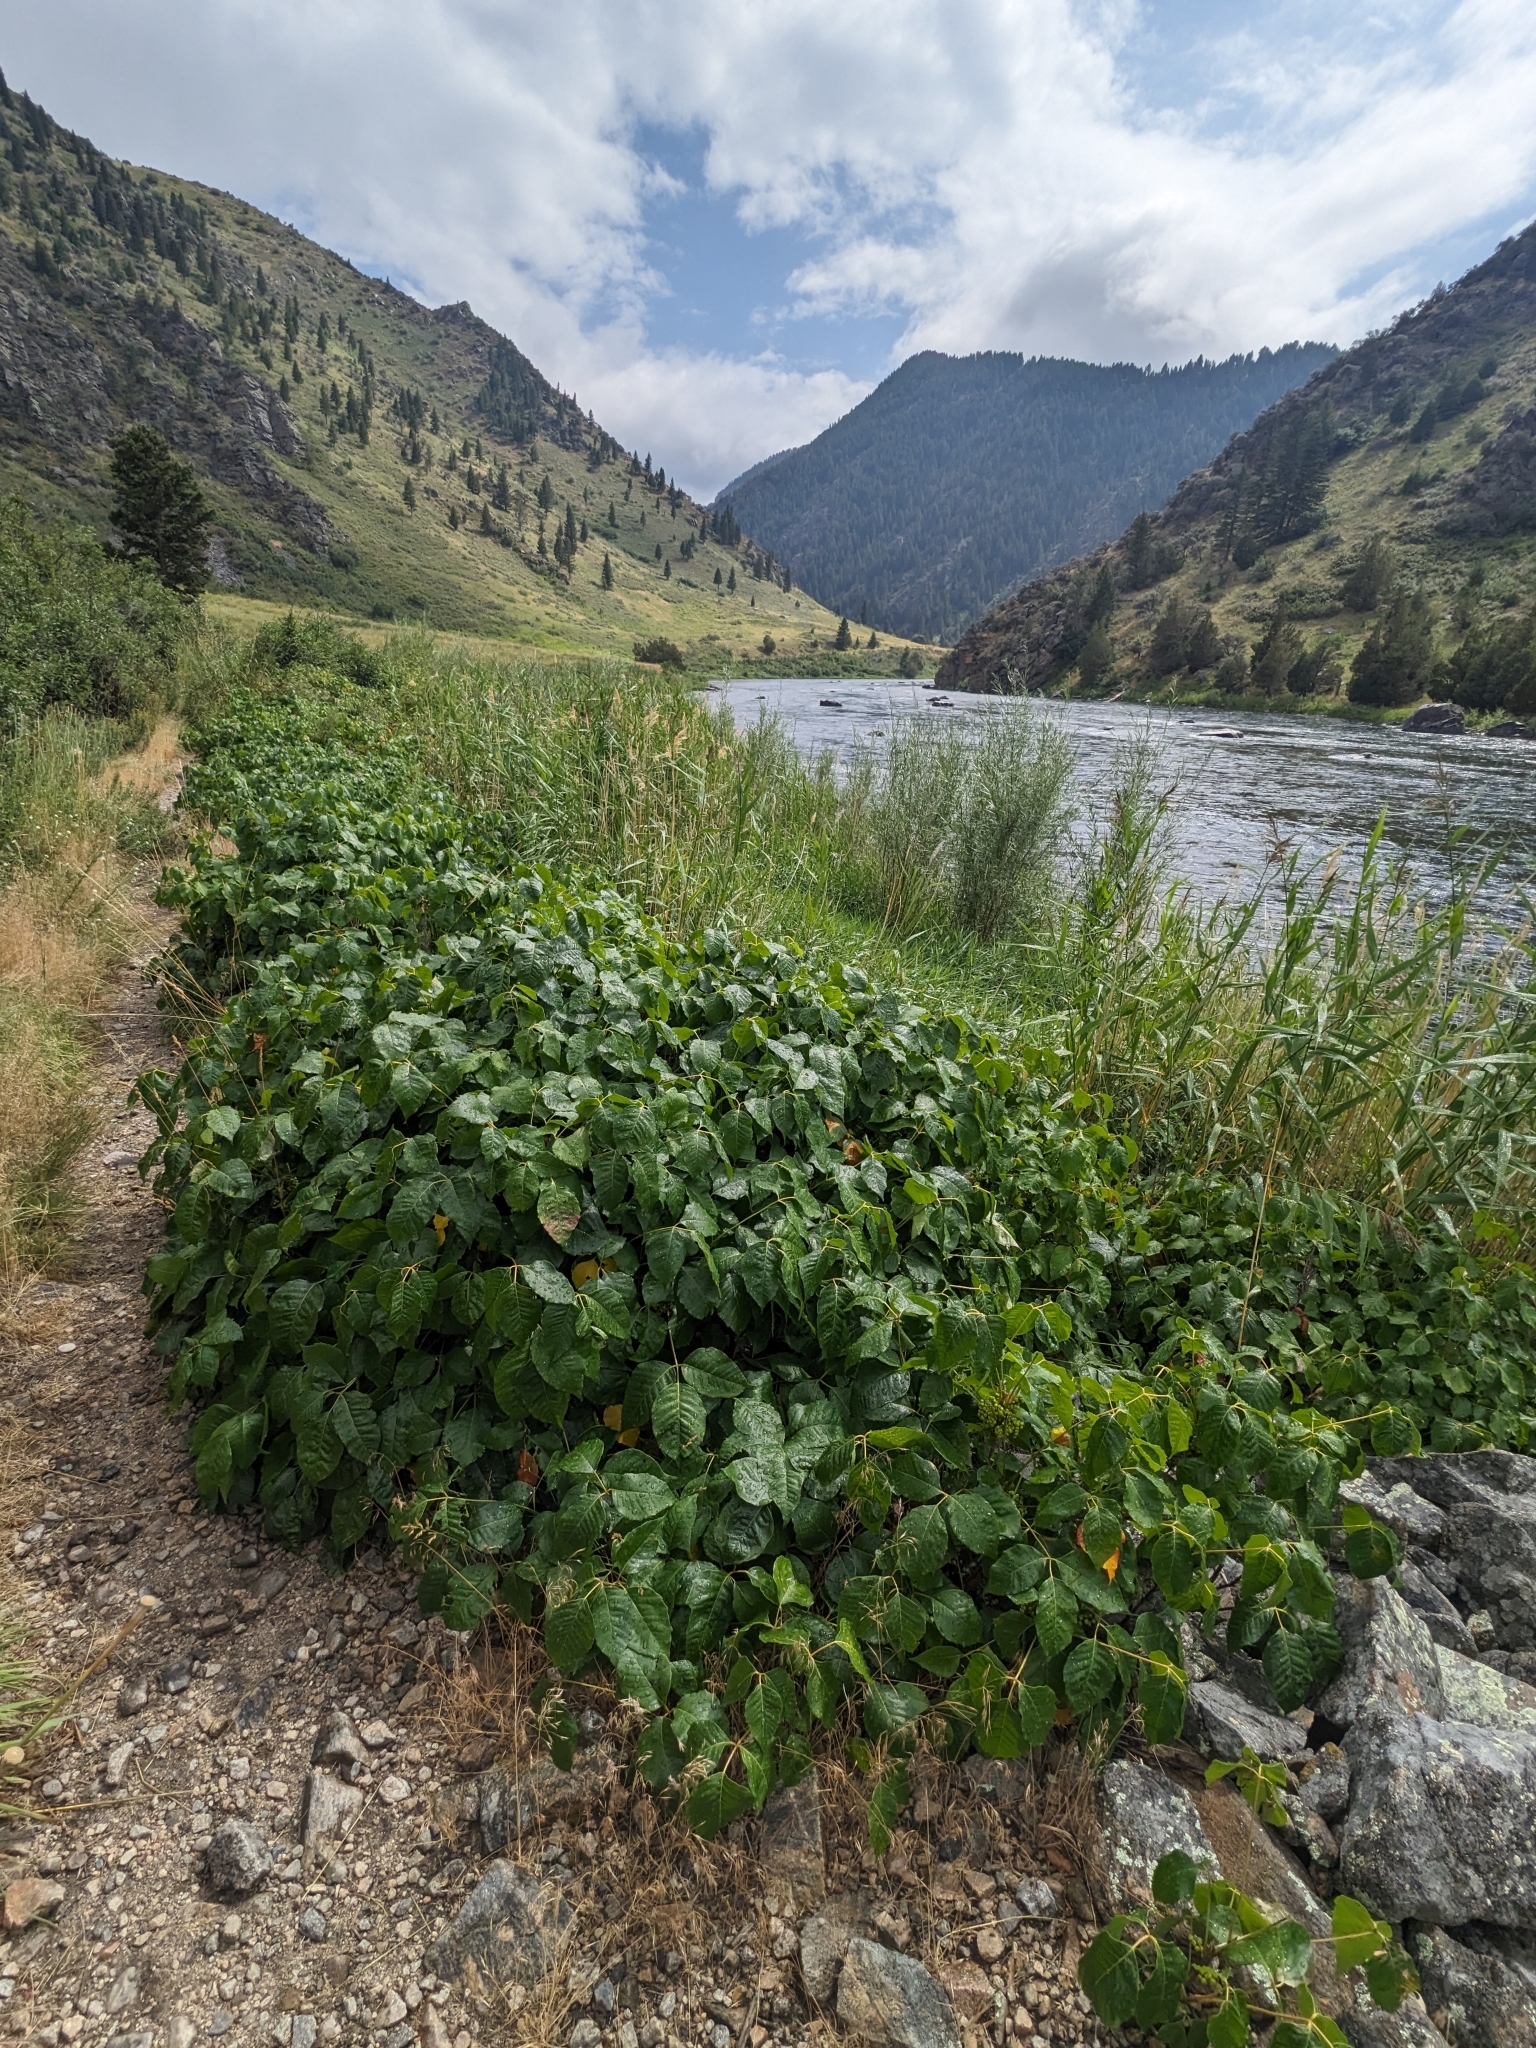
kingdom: Plantae
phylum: Tracheophyta
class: Magnoliopsida
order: Sapindales
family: Anacardiaceae
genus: Toxicodendron
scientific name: Toxicodendron rydbergii
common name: Rydberg's poison-ivy
